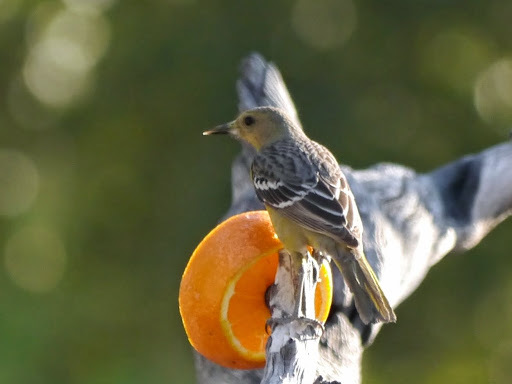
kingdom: Animalia
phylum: Chordata
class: Aves
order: Passeriformes
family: Icteridae
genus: Icterus
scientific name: Icterus parisorum
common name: Scott's oriole
